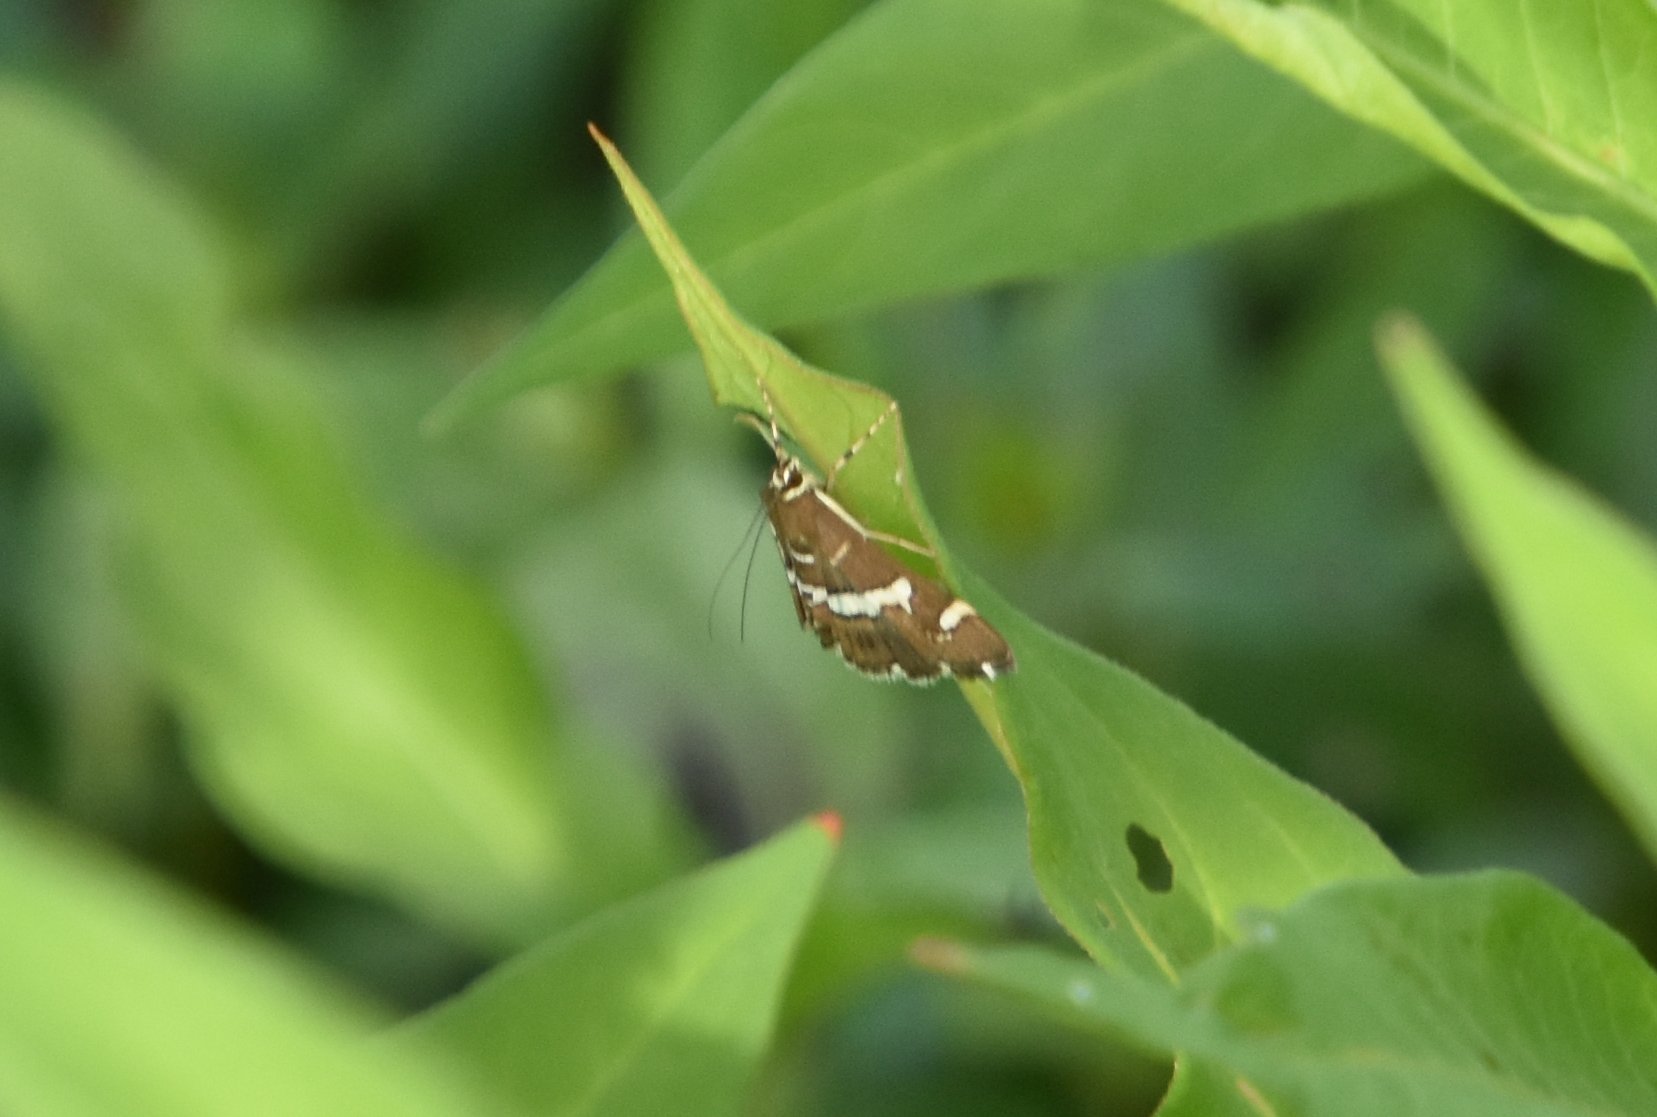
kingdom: Animalia
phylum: Arthropoda
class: Insecta
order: Lepidoptera
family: Crambidae
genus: Spoladea
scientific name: Spoladea recurvalis
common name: Beet webworm moth
